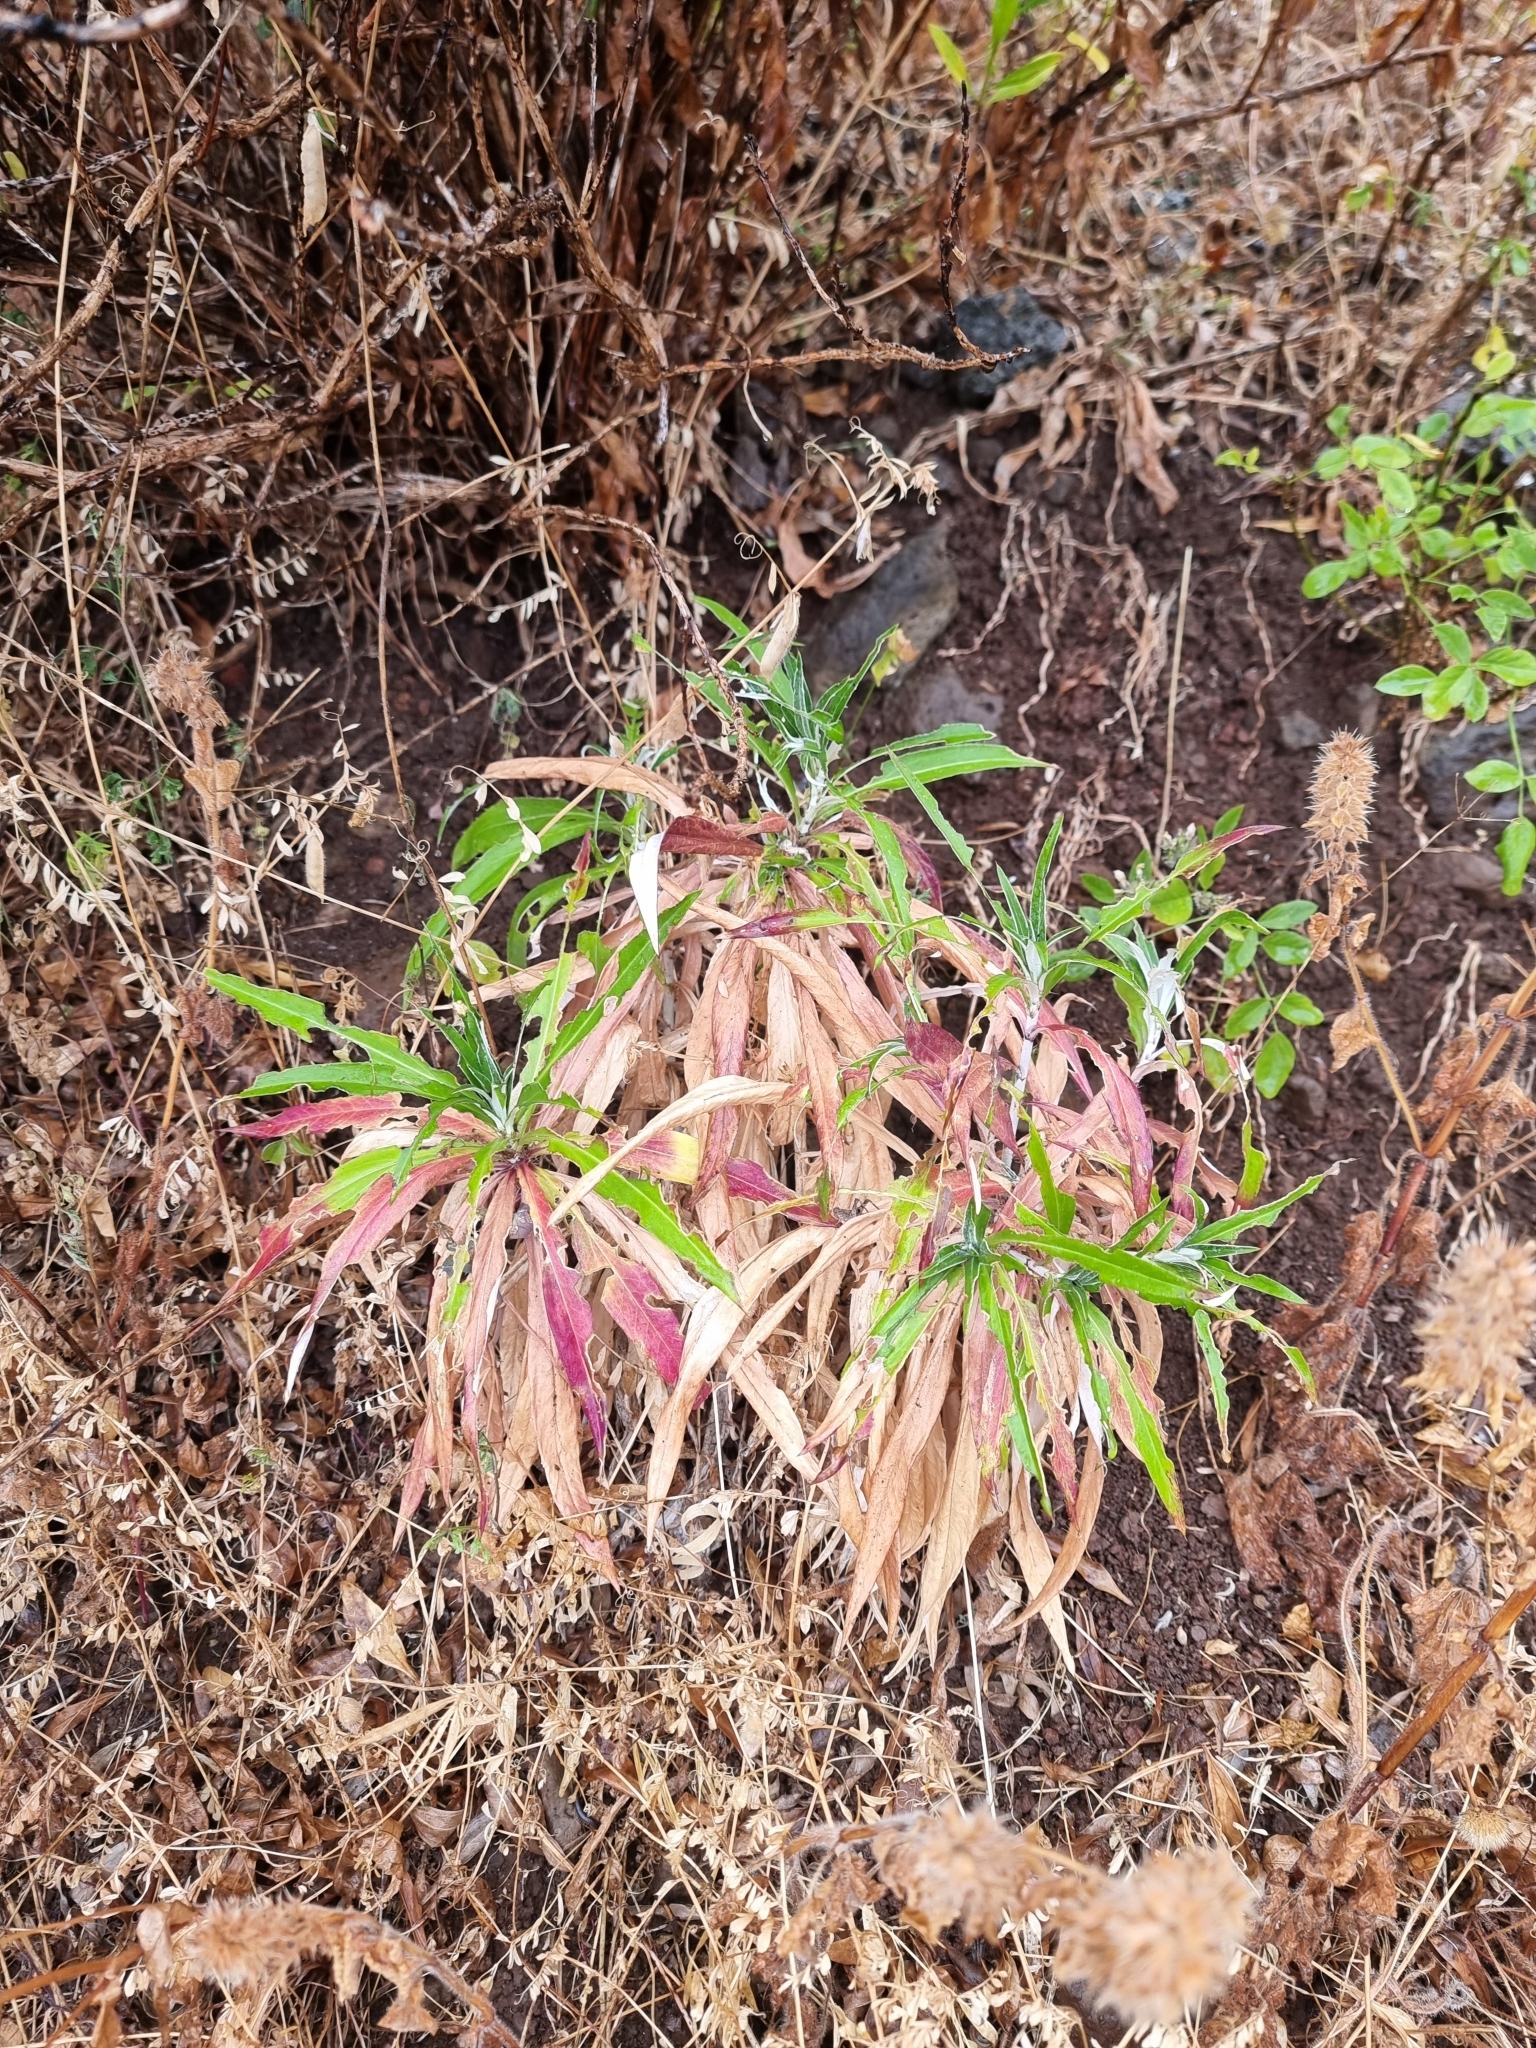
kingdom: Plantae
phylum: Tracheophyta
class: Magnoliopsida
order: Asterales
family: Asteraceae
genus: Carlina
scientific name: Carlina salicifolia
